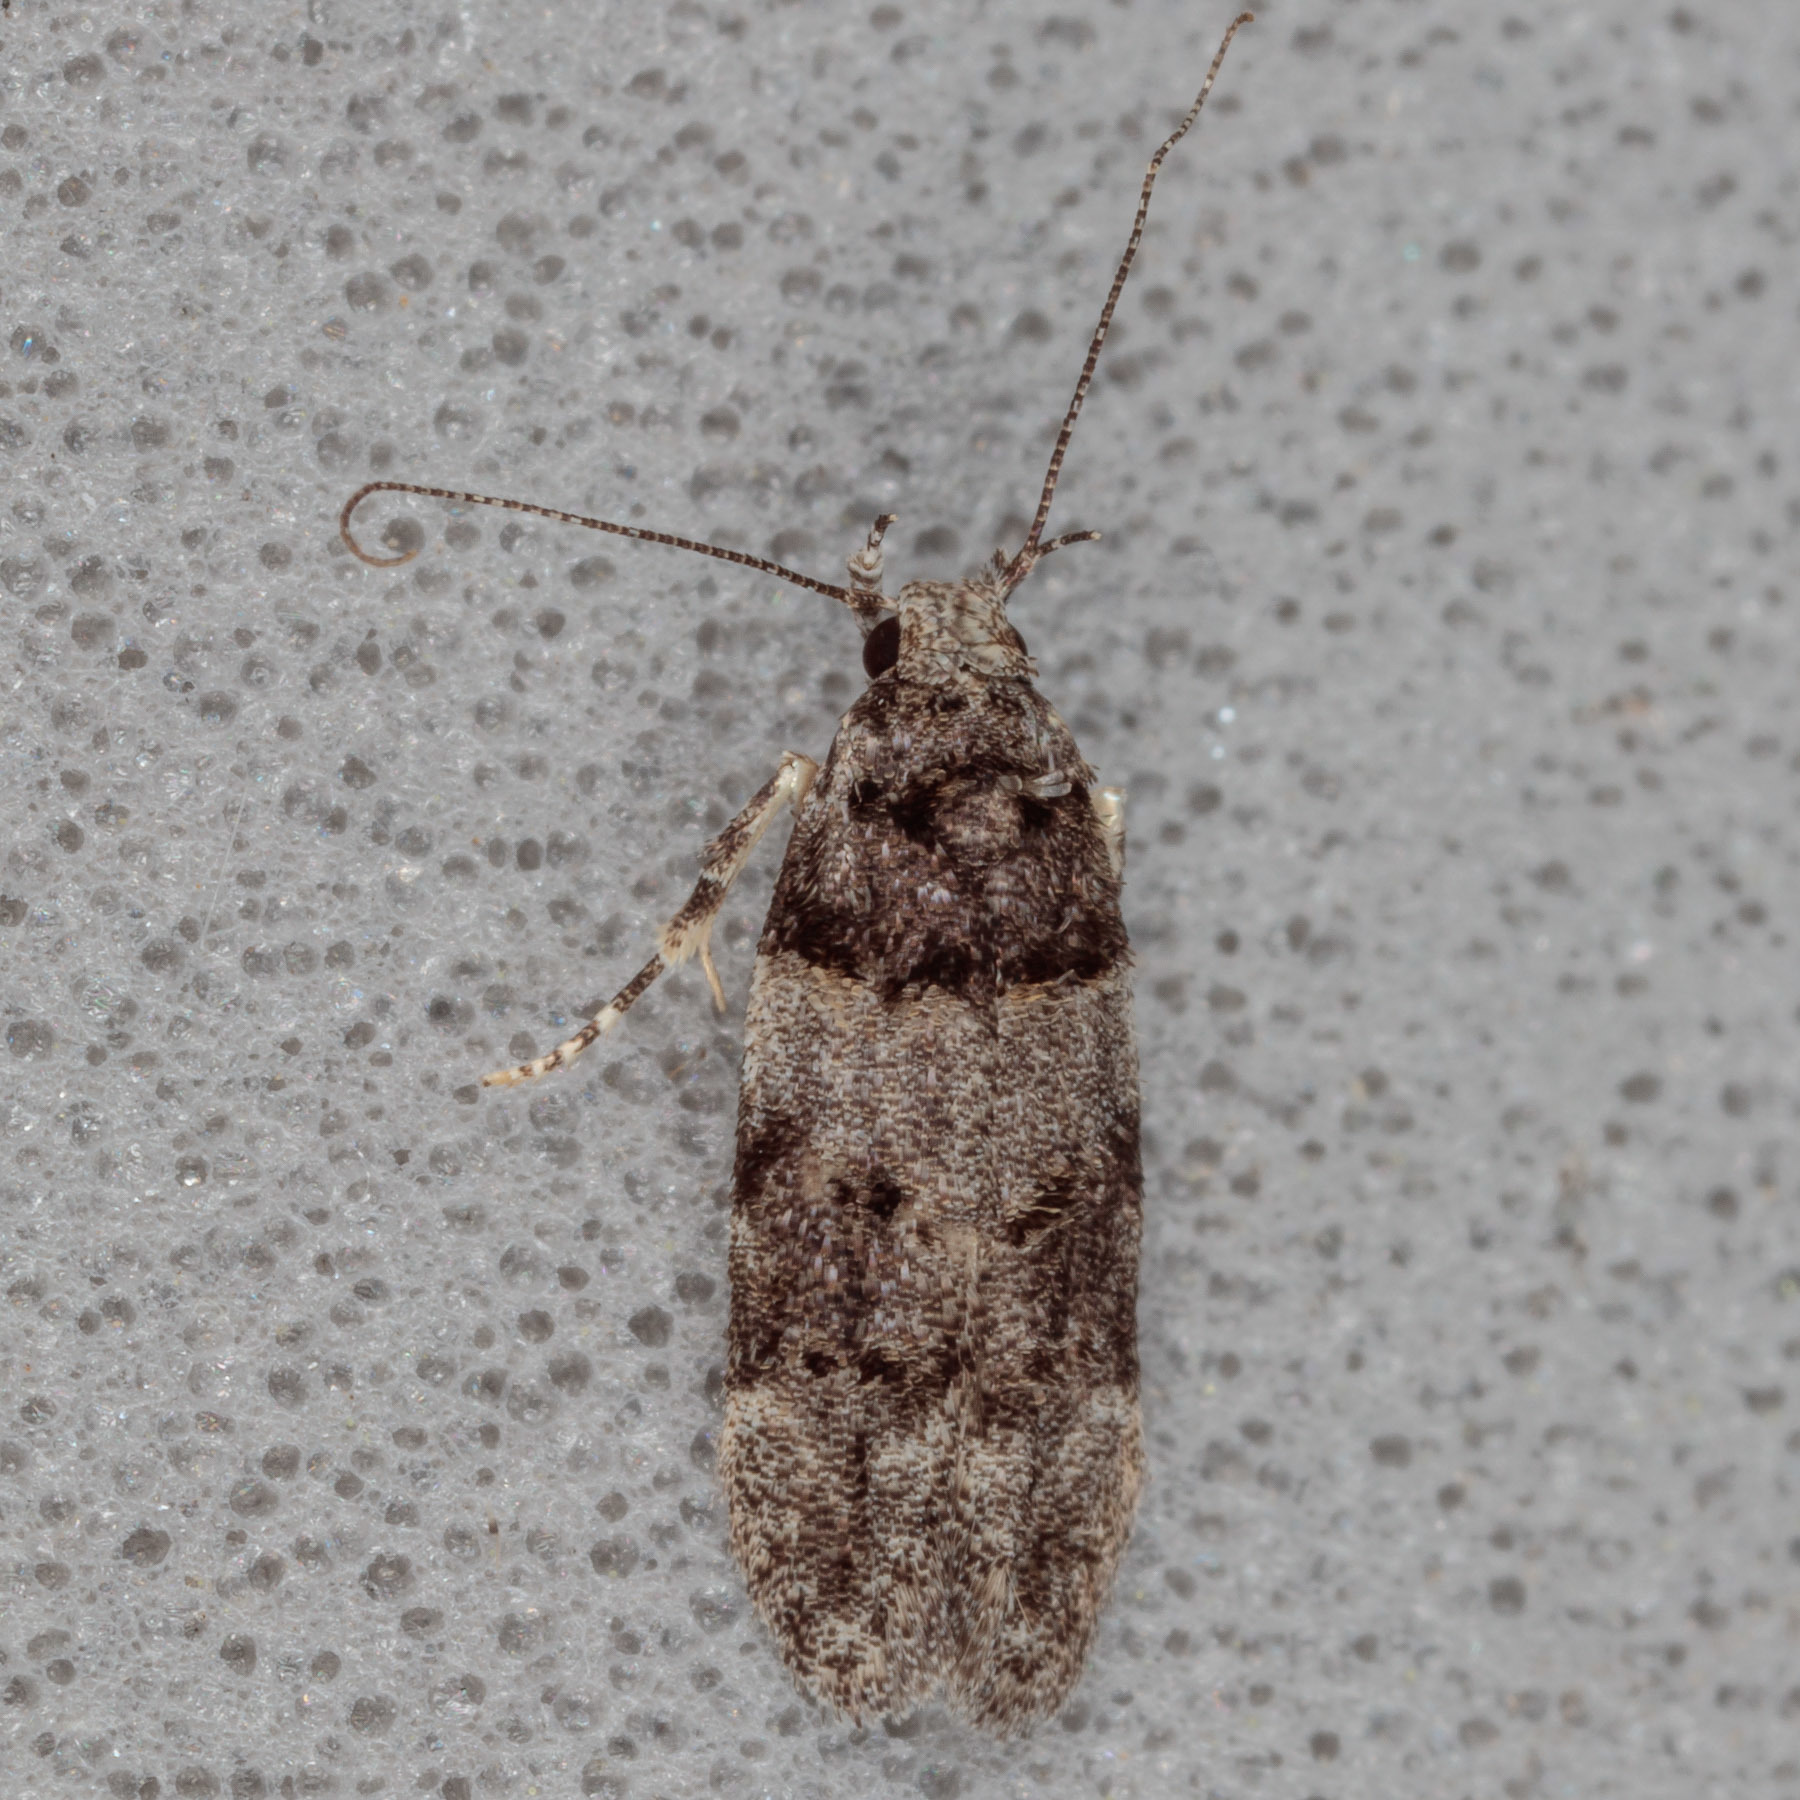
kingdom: Animalia
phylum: Arthropoda
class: Insecta
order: Lepidoptera
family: Gelechiidae
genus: Pubitelphusa
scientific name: Pubitelphusa latifasciella
